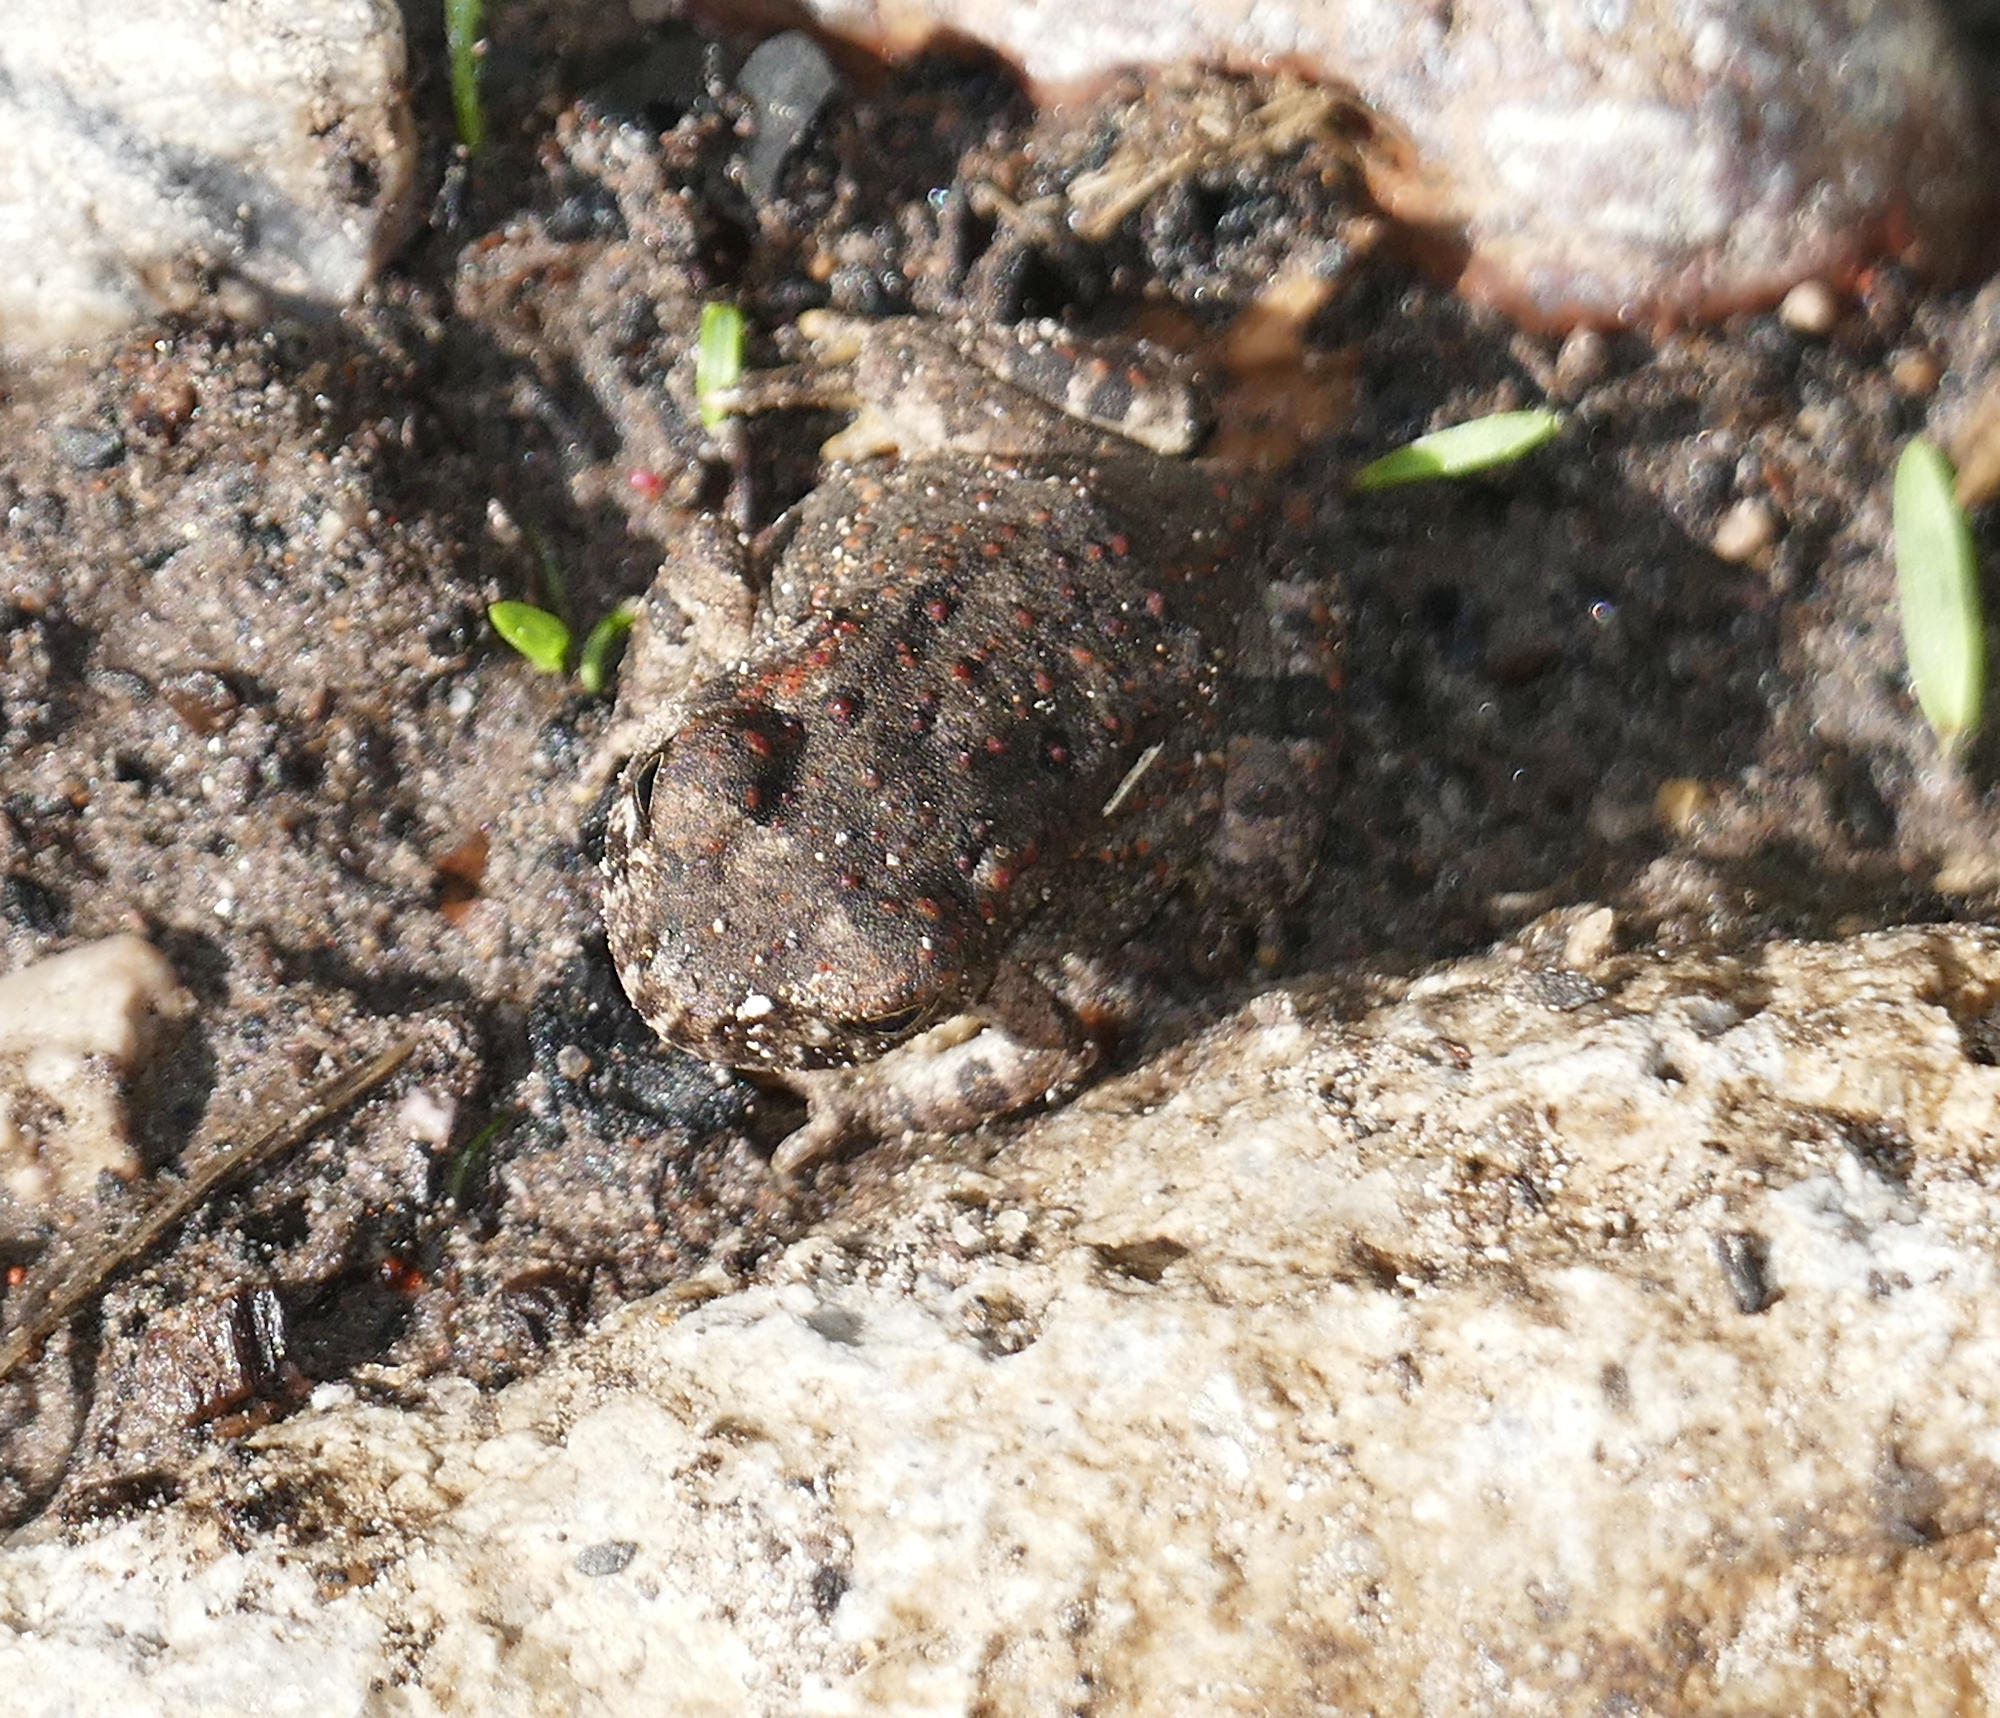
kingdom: Animalia
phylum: Chordata
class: Amphibia
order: Anura
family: Bufonidae
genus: Anaxyrus
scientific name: Anaxyrus microscaphus
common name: Arizona toad
